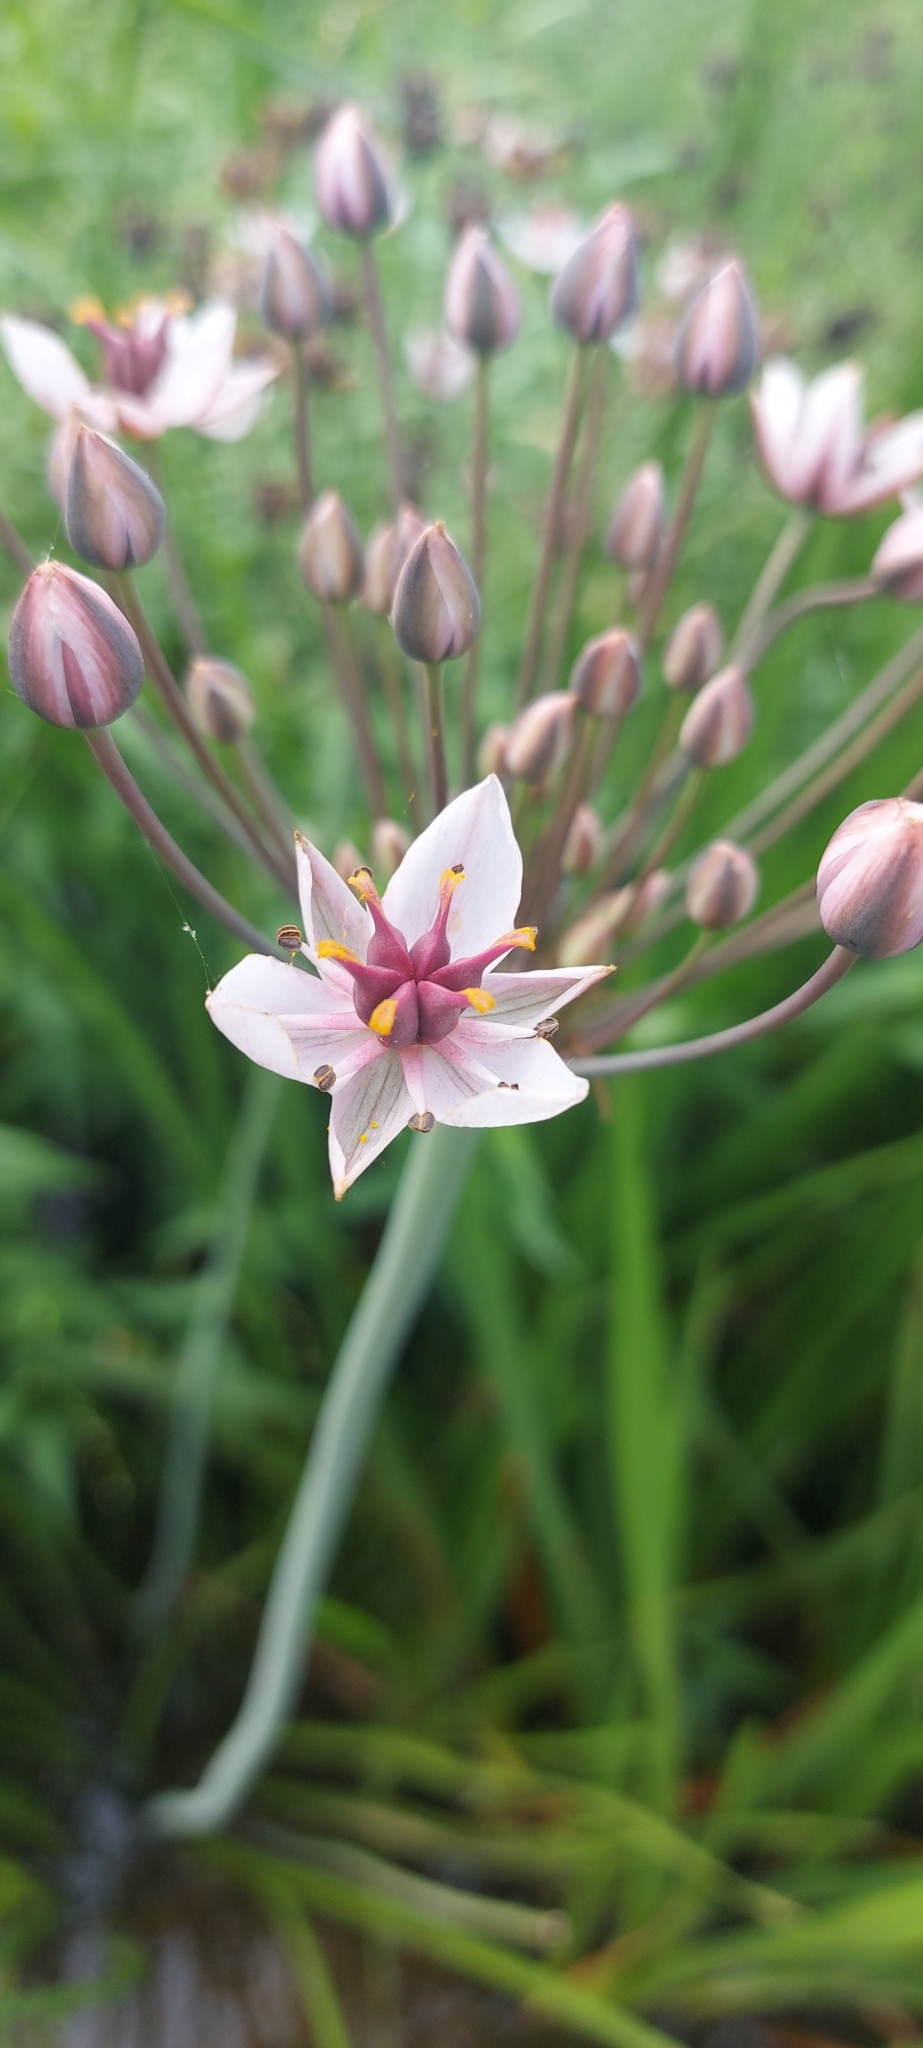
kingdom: Plantae
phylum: Tracheophyta
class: Liliopsida
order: Alismatales
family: Butomaceae
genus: Butomus
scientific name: Butomus umbellatus
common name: Flowering-rush
